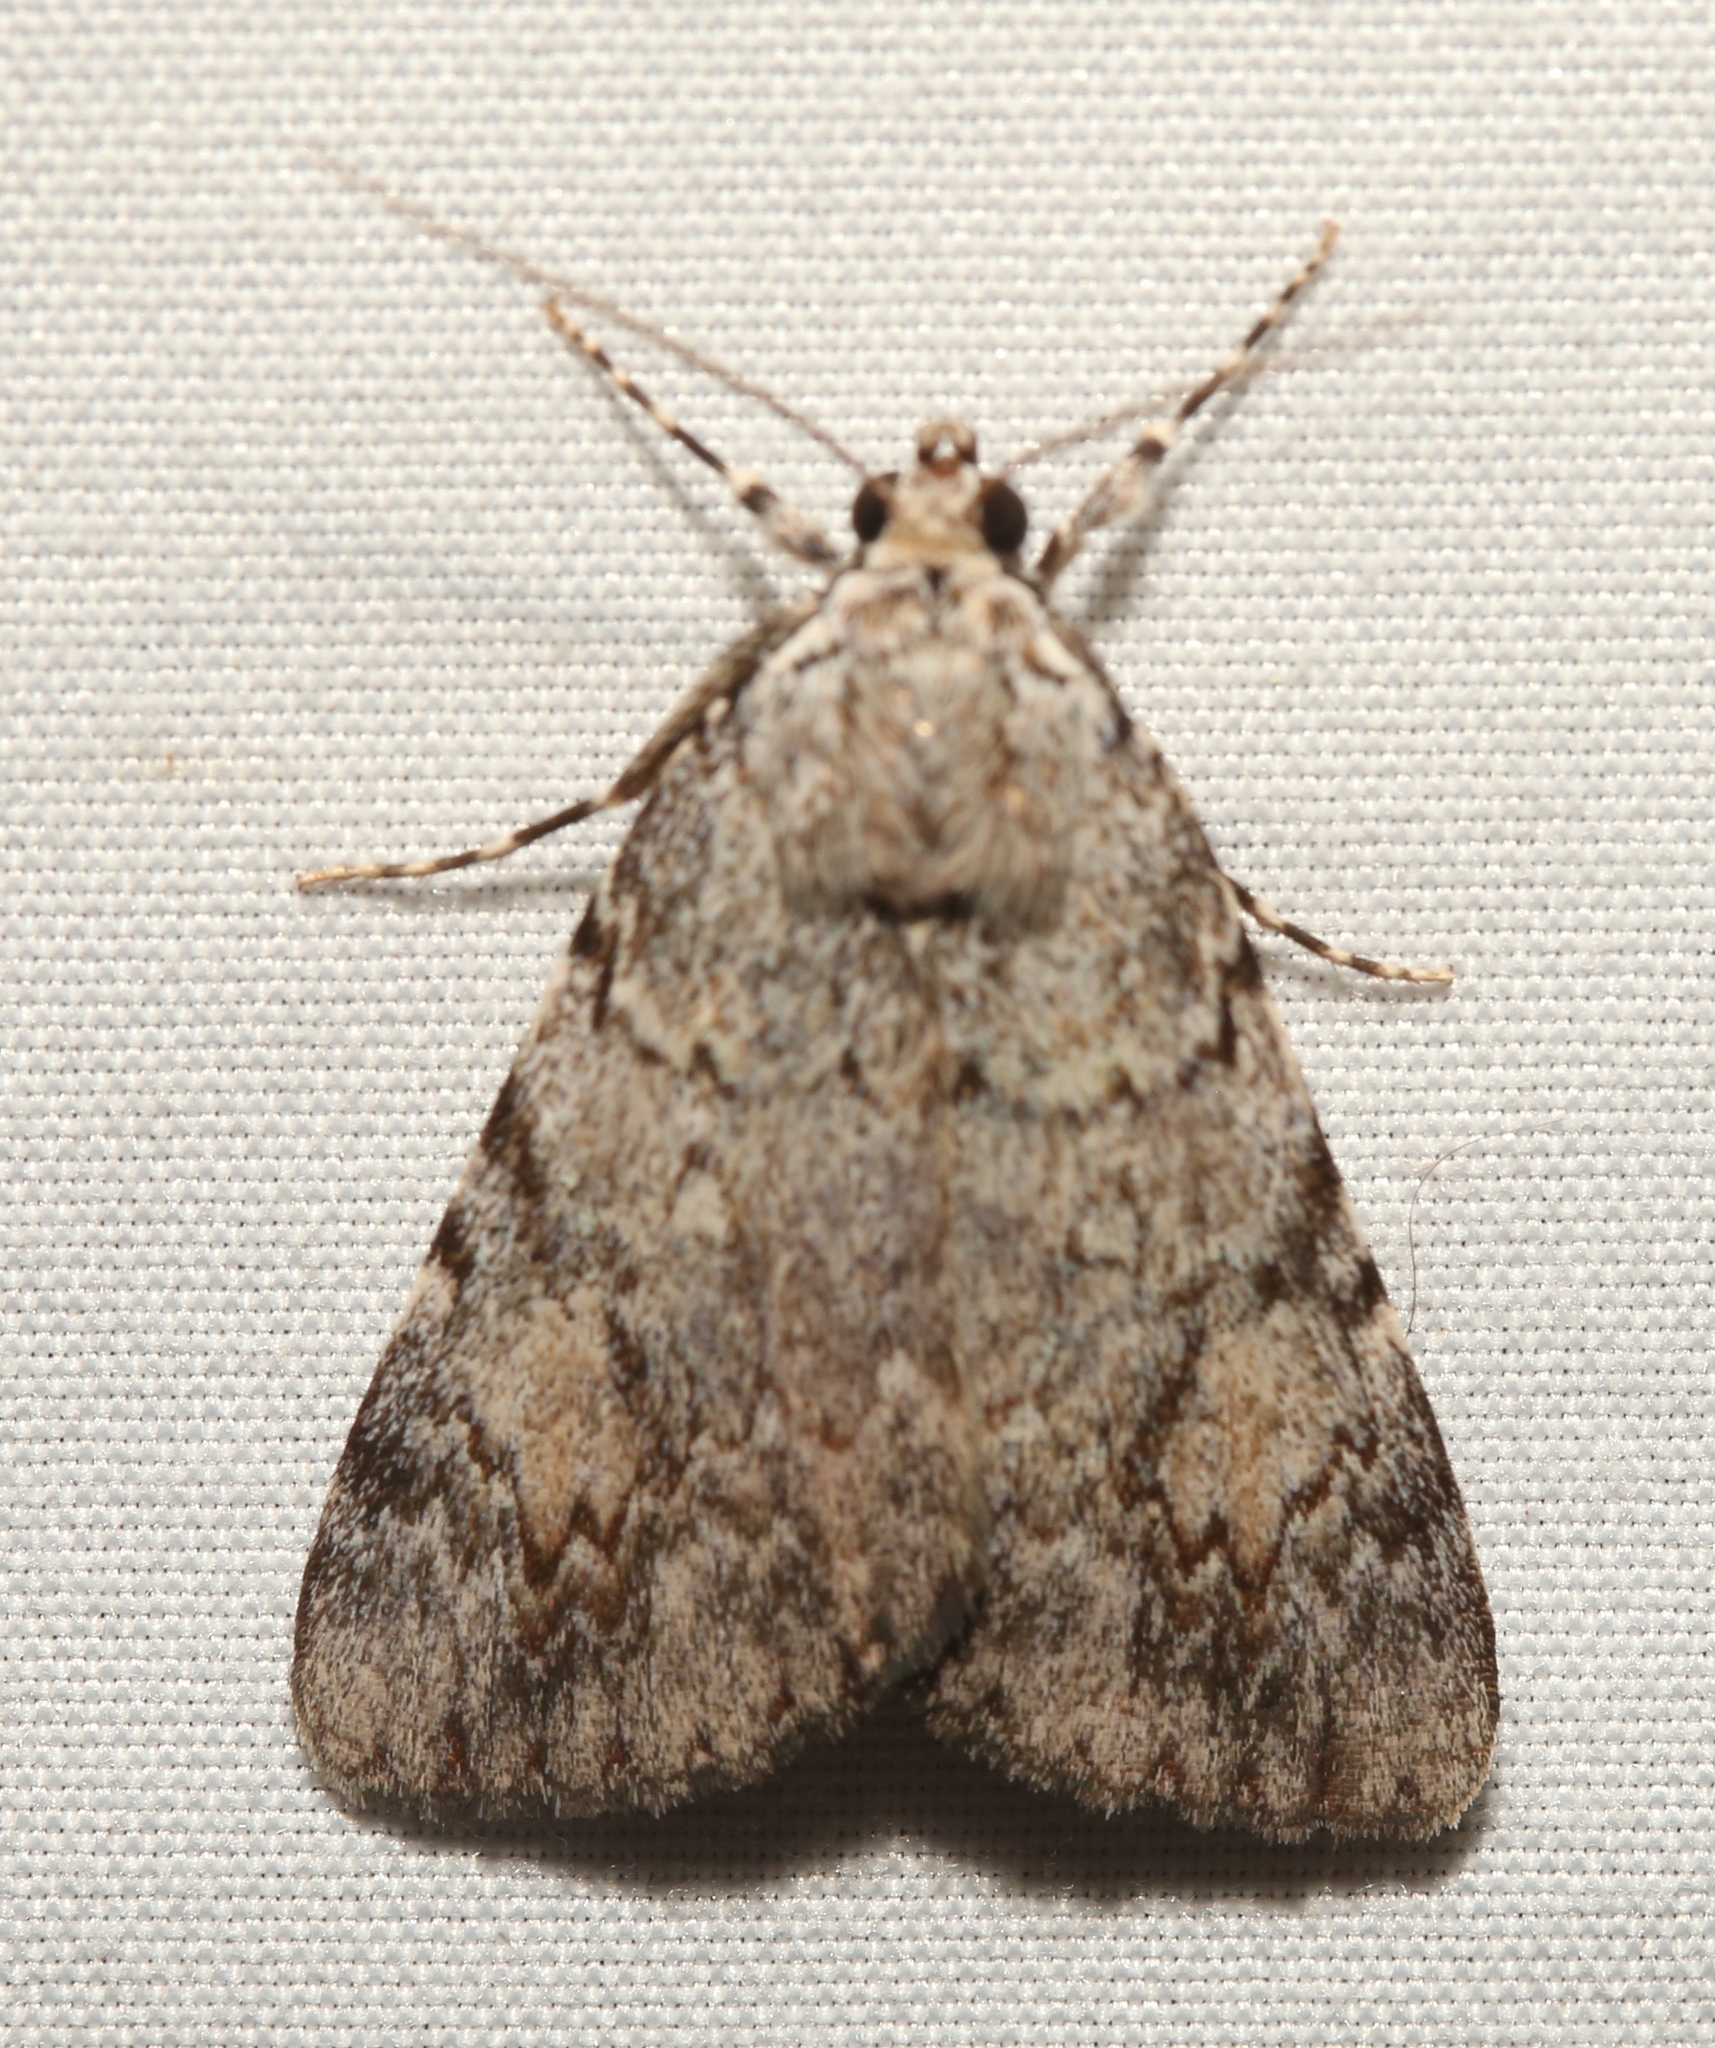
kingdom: Animalia
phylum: Arthropoda
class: Insecta
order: Lepidoptera
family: Erebidae
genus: Catocala
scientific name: Catocala amica
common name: Girlfriend underwing
